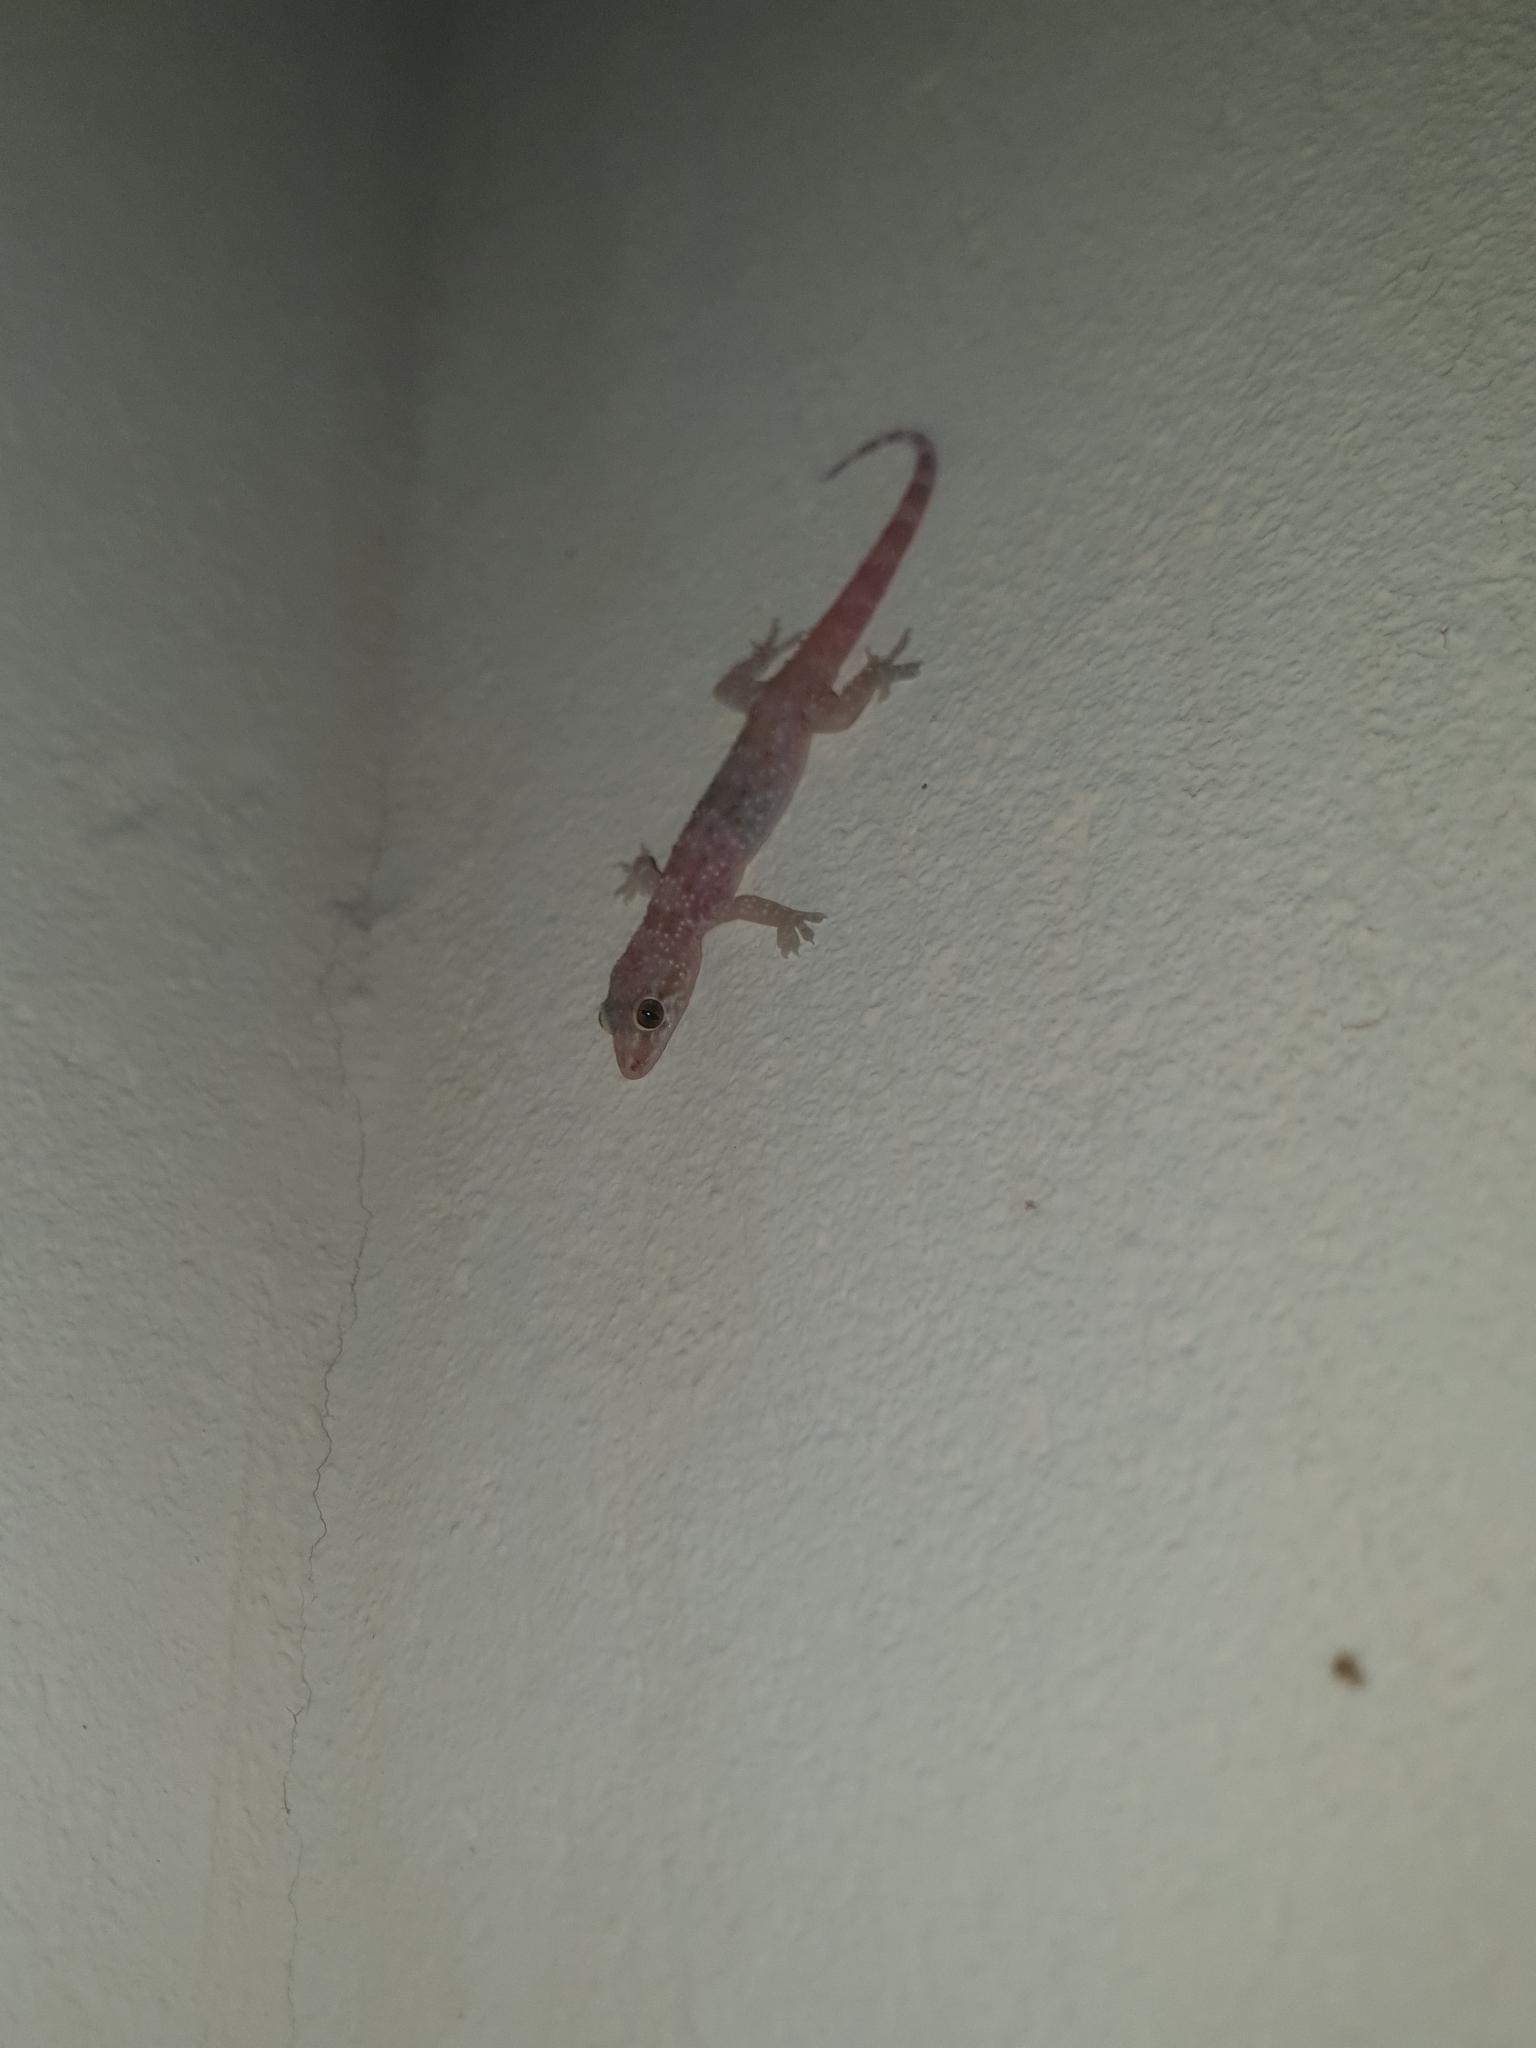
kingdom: Animalia
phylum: Chordata
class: Squamata
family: Gekkonidae
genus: Hemidactylus
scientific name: Hemidactylus turcicus
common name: Turkish gecko
